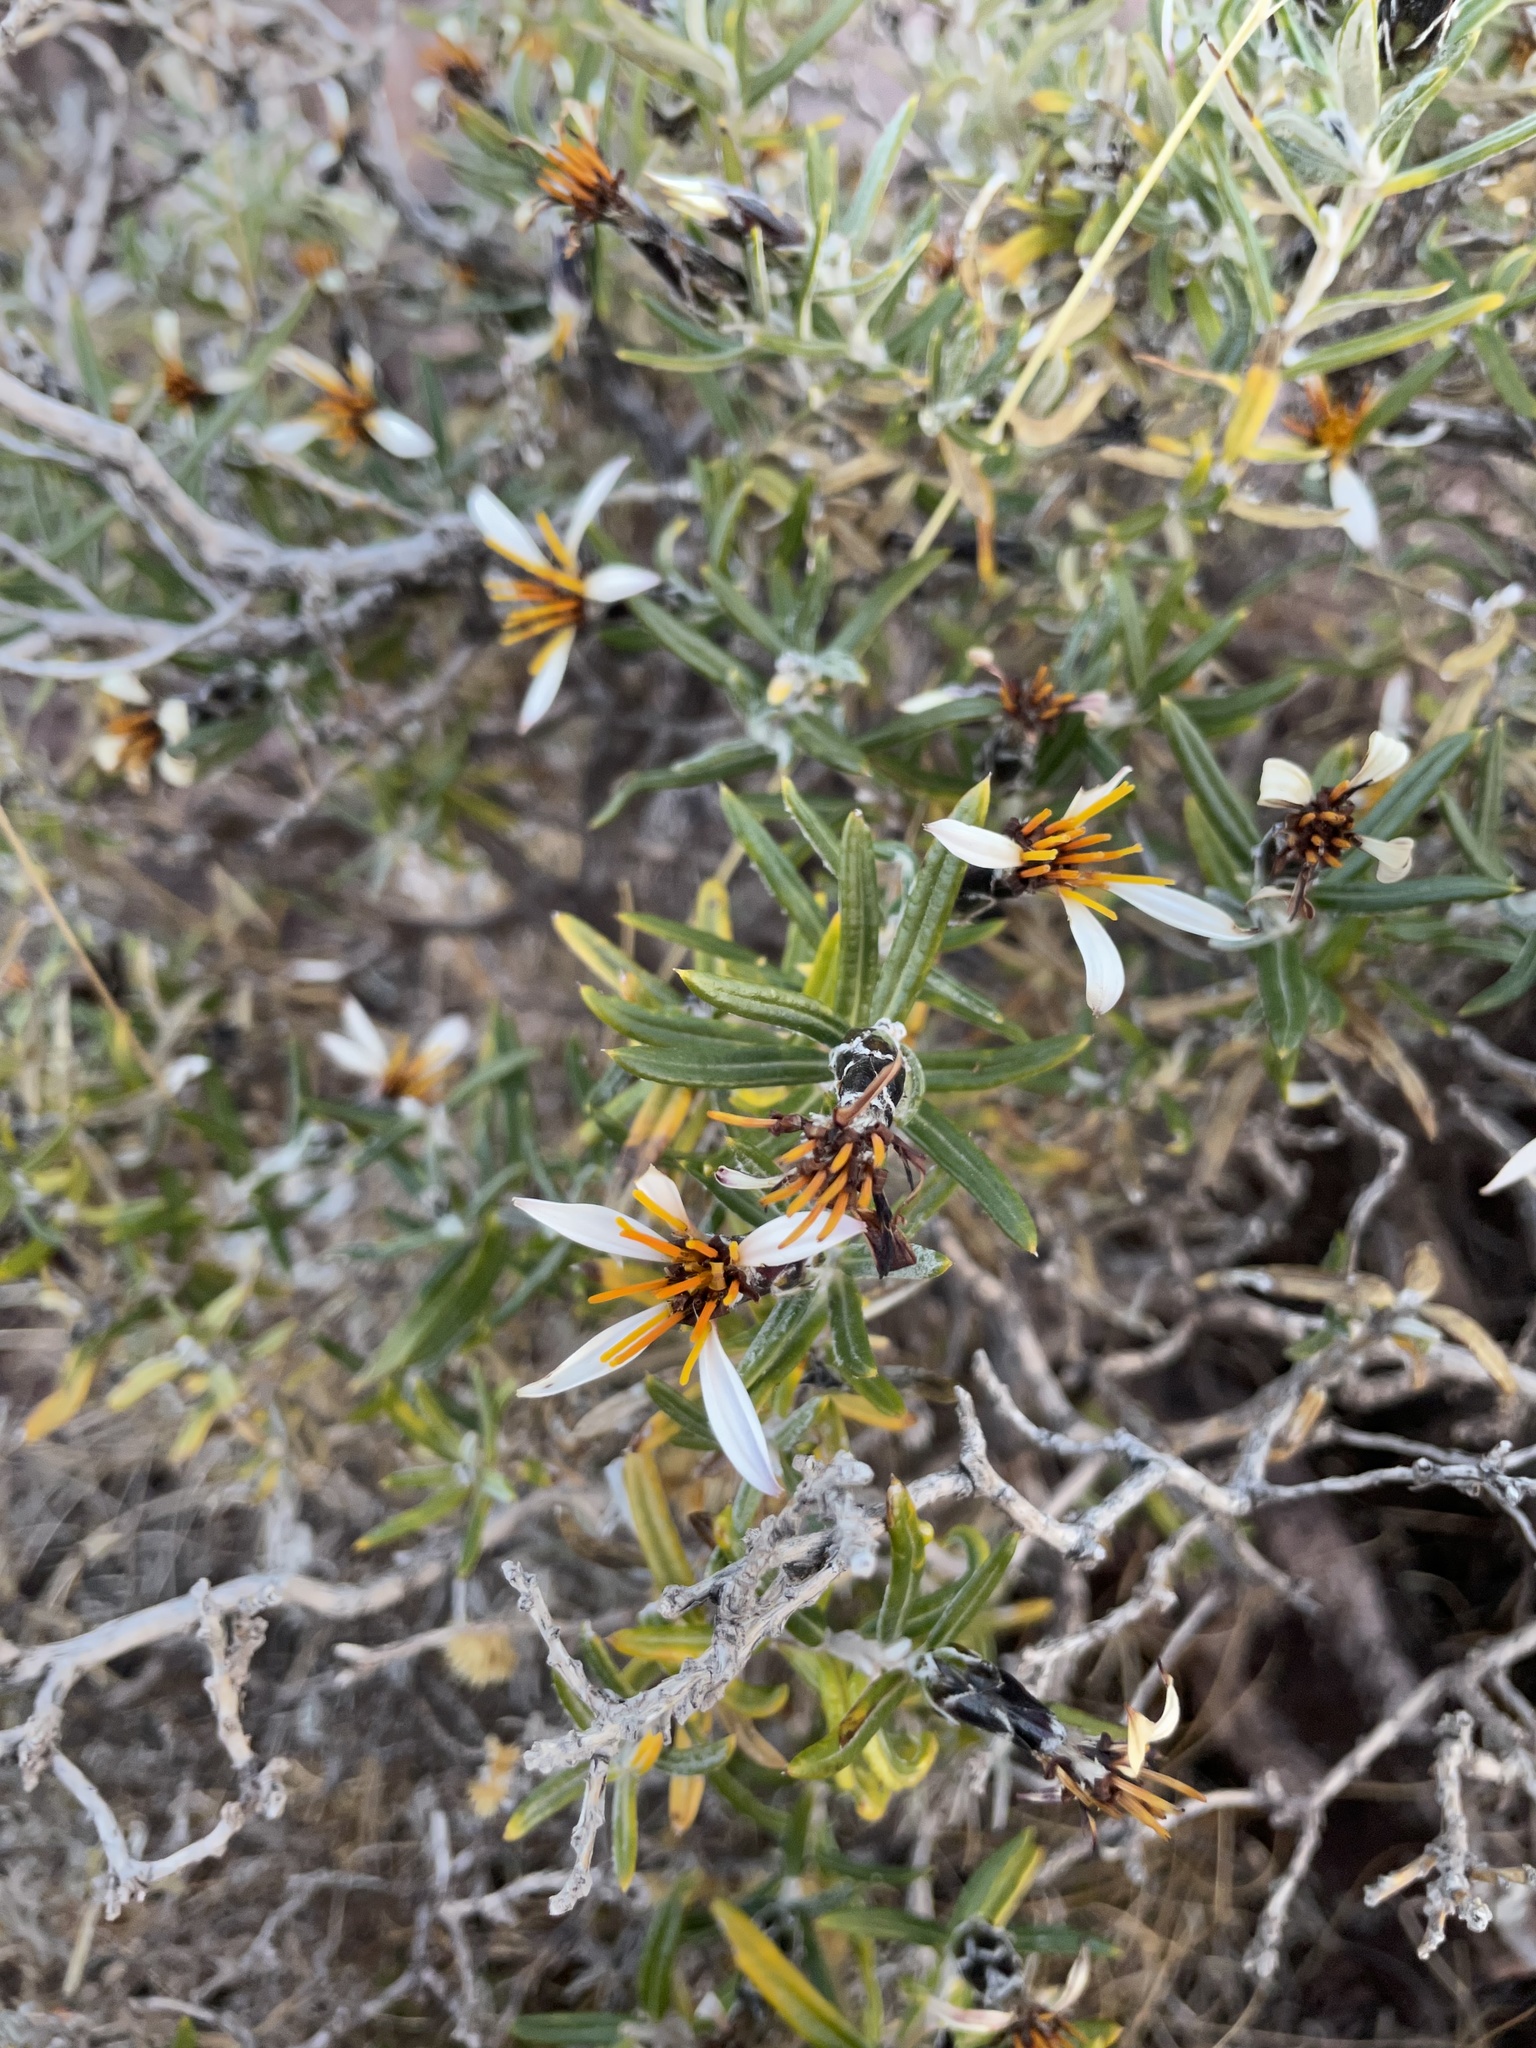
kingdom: Plantae
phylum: Tracheophyta
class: Magnoliopsida
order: Asterales
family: Asteraceae
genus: Mutisia
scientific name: Mutisia ledifolia
